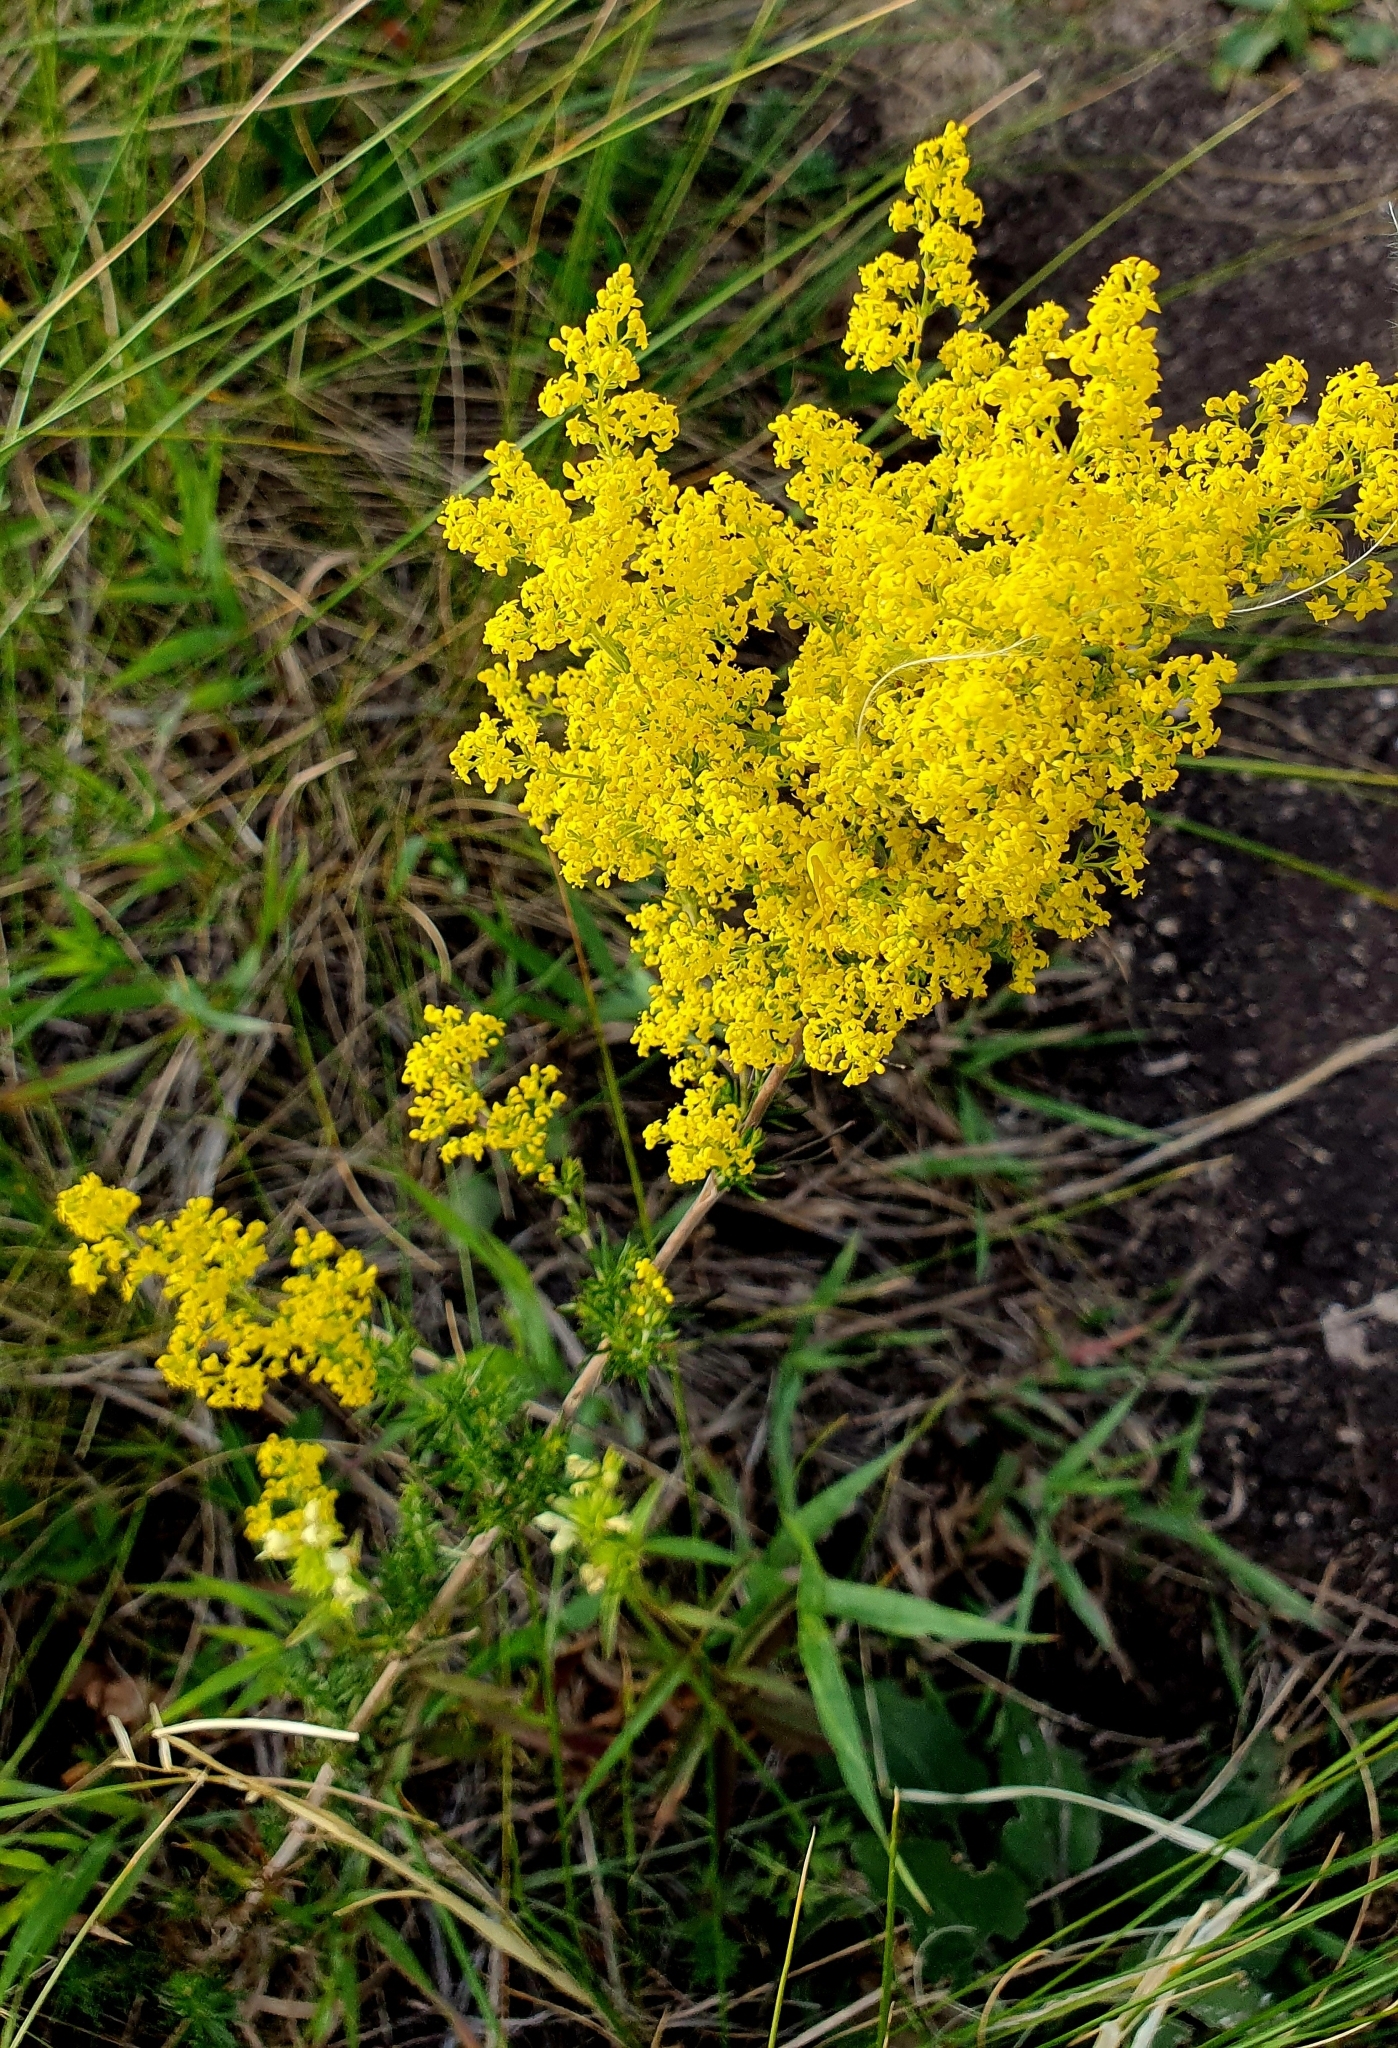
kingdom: Plantae
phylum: Tracheophyta
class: Magnoliopsida
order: Gentianales
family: Rubiaceae
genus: Galium
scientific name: Galium verum
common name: Lady's bedstraw
